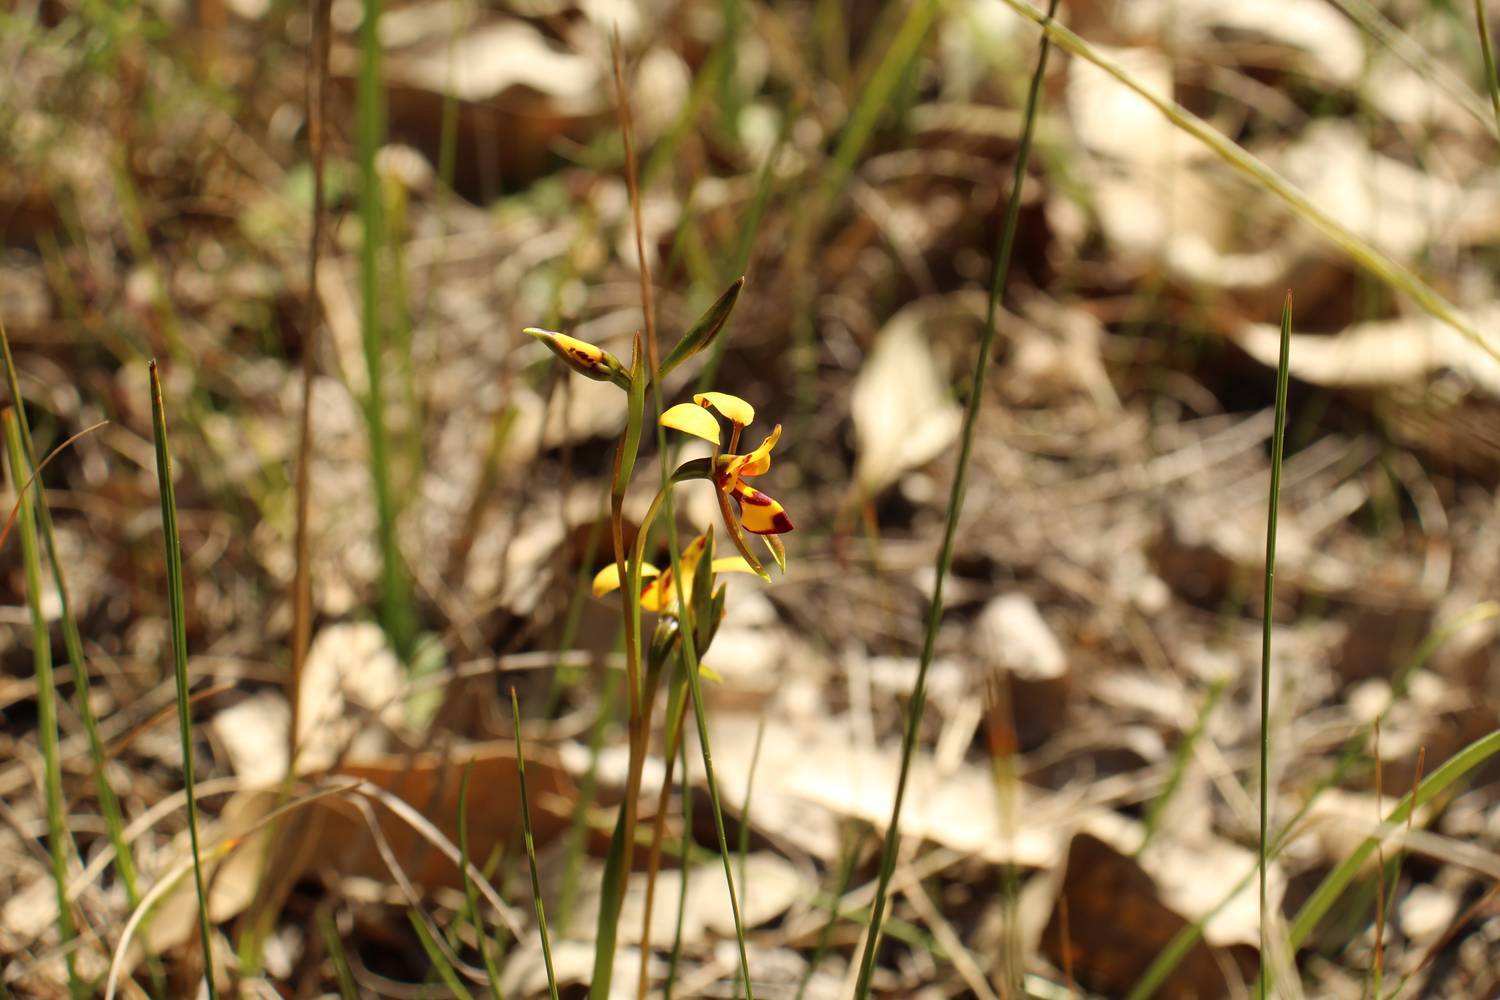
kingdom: Plantae
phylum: Tracheophyta
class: Liliopsida
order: Asparagales
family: Orchidaceae
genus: Diuris
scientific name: Diuris laxiflora
